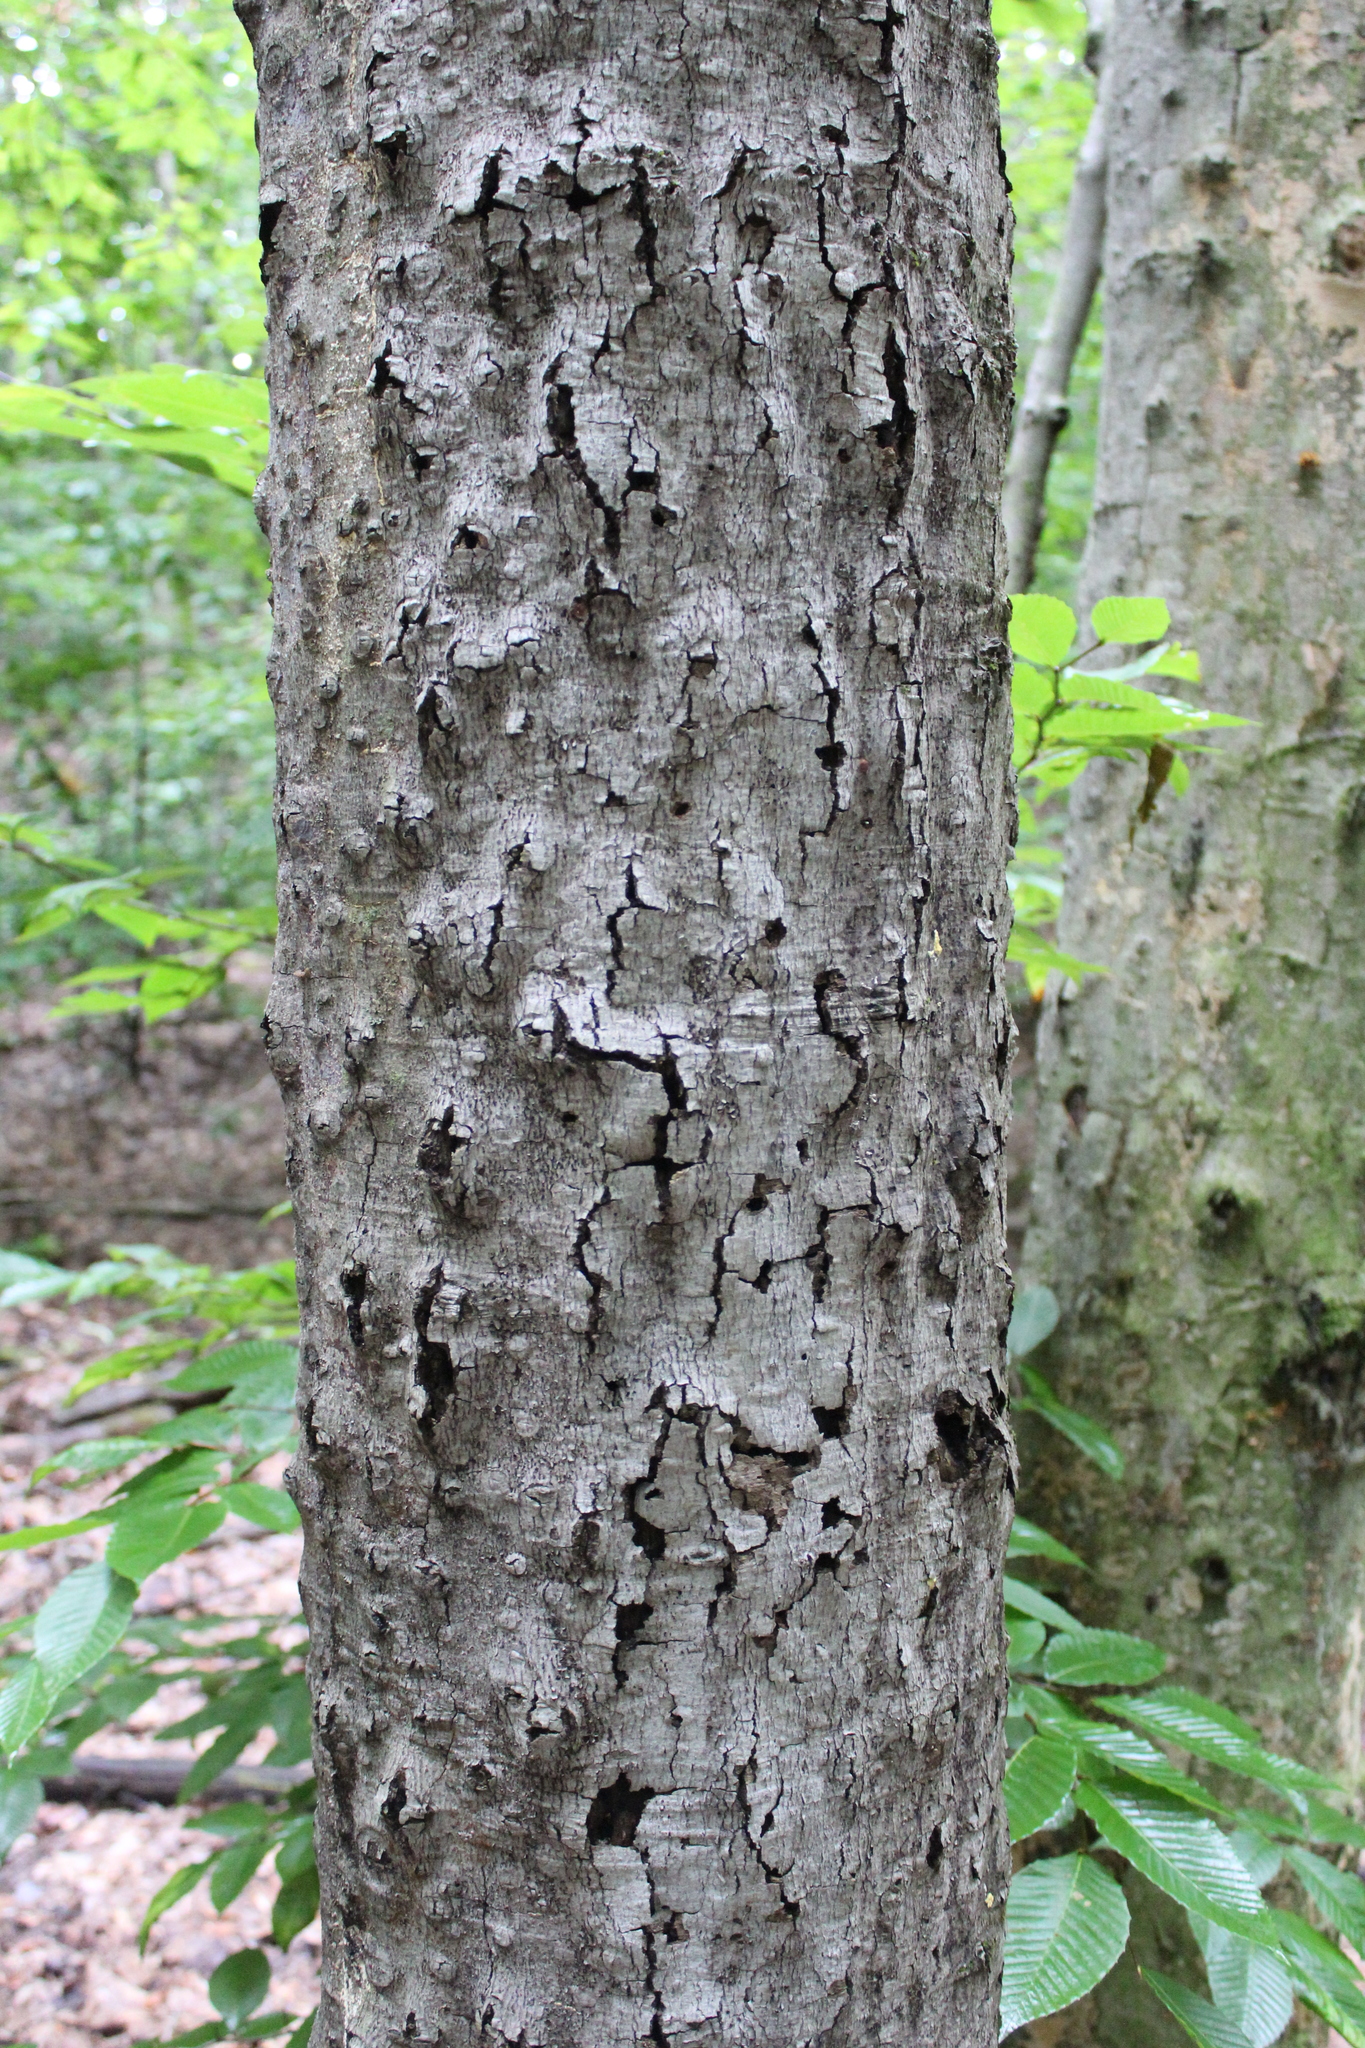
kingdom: Plantae
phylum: Tracheophyta
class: Magnoliopsida
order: Fagales
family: Fagaceae
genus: Fagus
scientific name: Fagus grandifolia
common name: American beech
